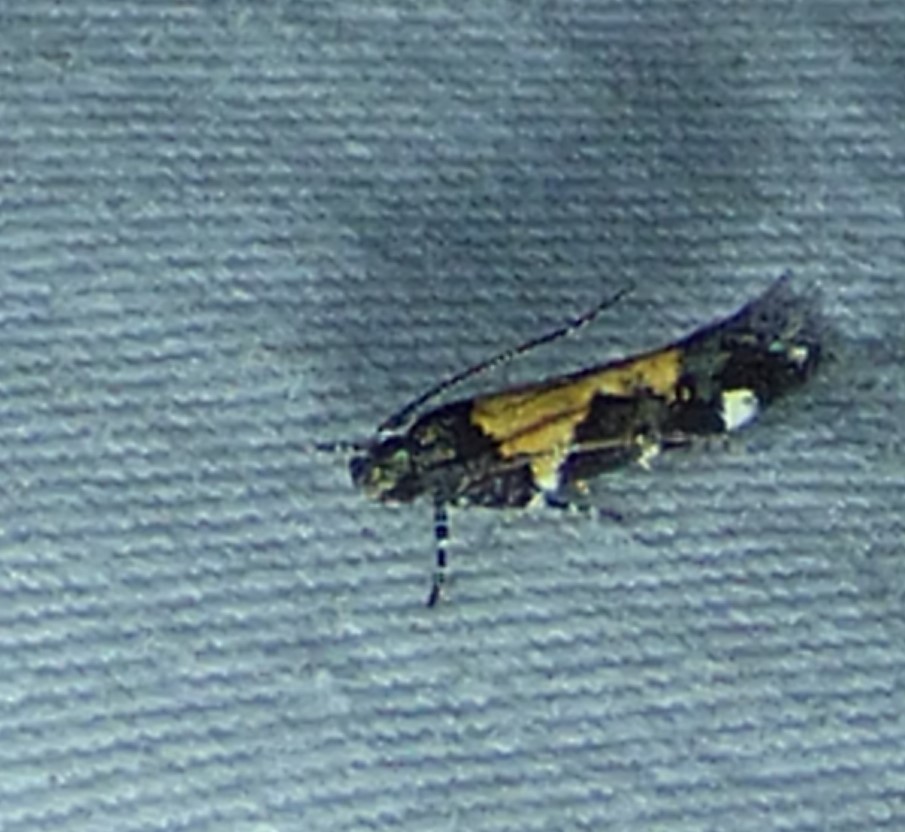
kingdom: Animalia
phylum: Arthropoda
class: Insecta
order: Lepidoptera
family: Gelechiidae
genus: Stegasta
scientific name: Stegasta bosqueella
